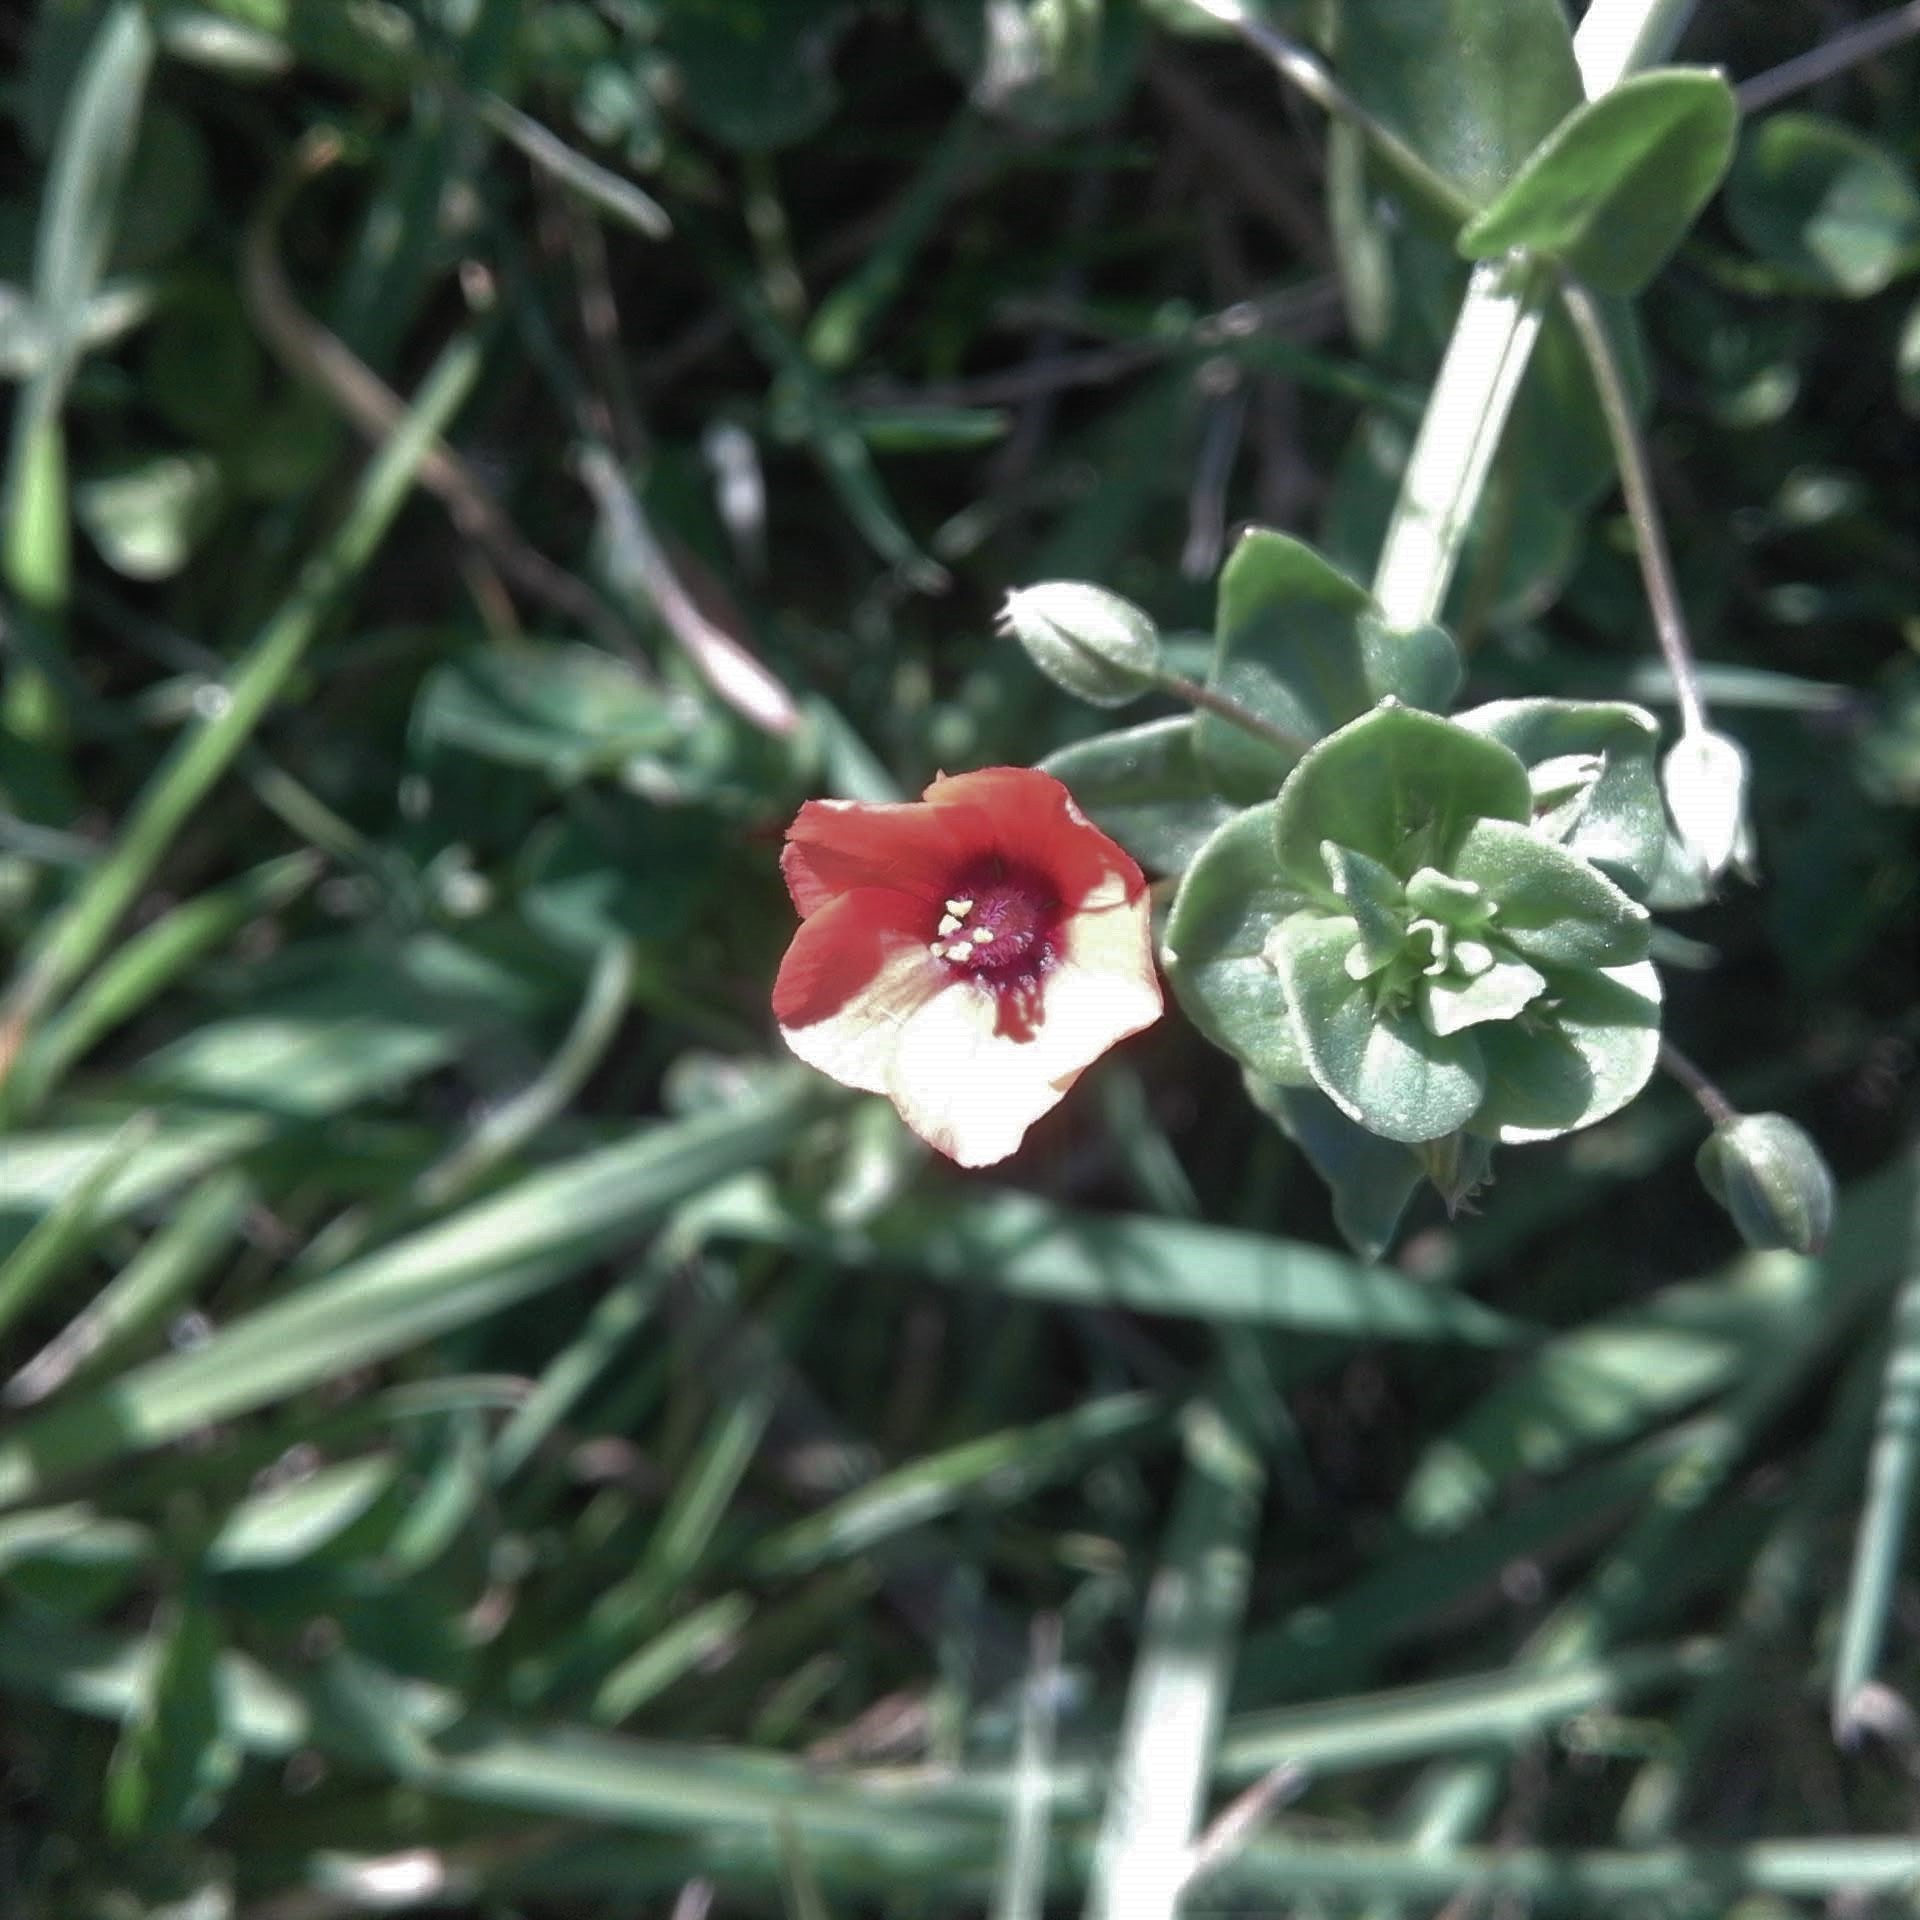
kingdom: Plantae
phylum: Tracheophyta
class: Magnoliopsida
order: Ericales
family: Primulaceae
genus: Lysimachia
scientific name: Lysimachia arvensis
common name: Scarlet pimpernel
